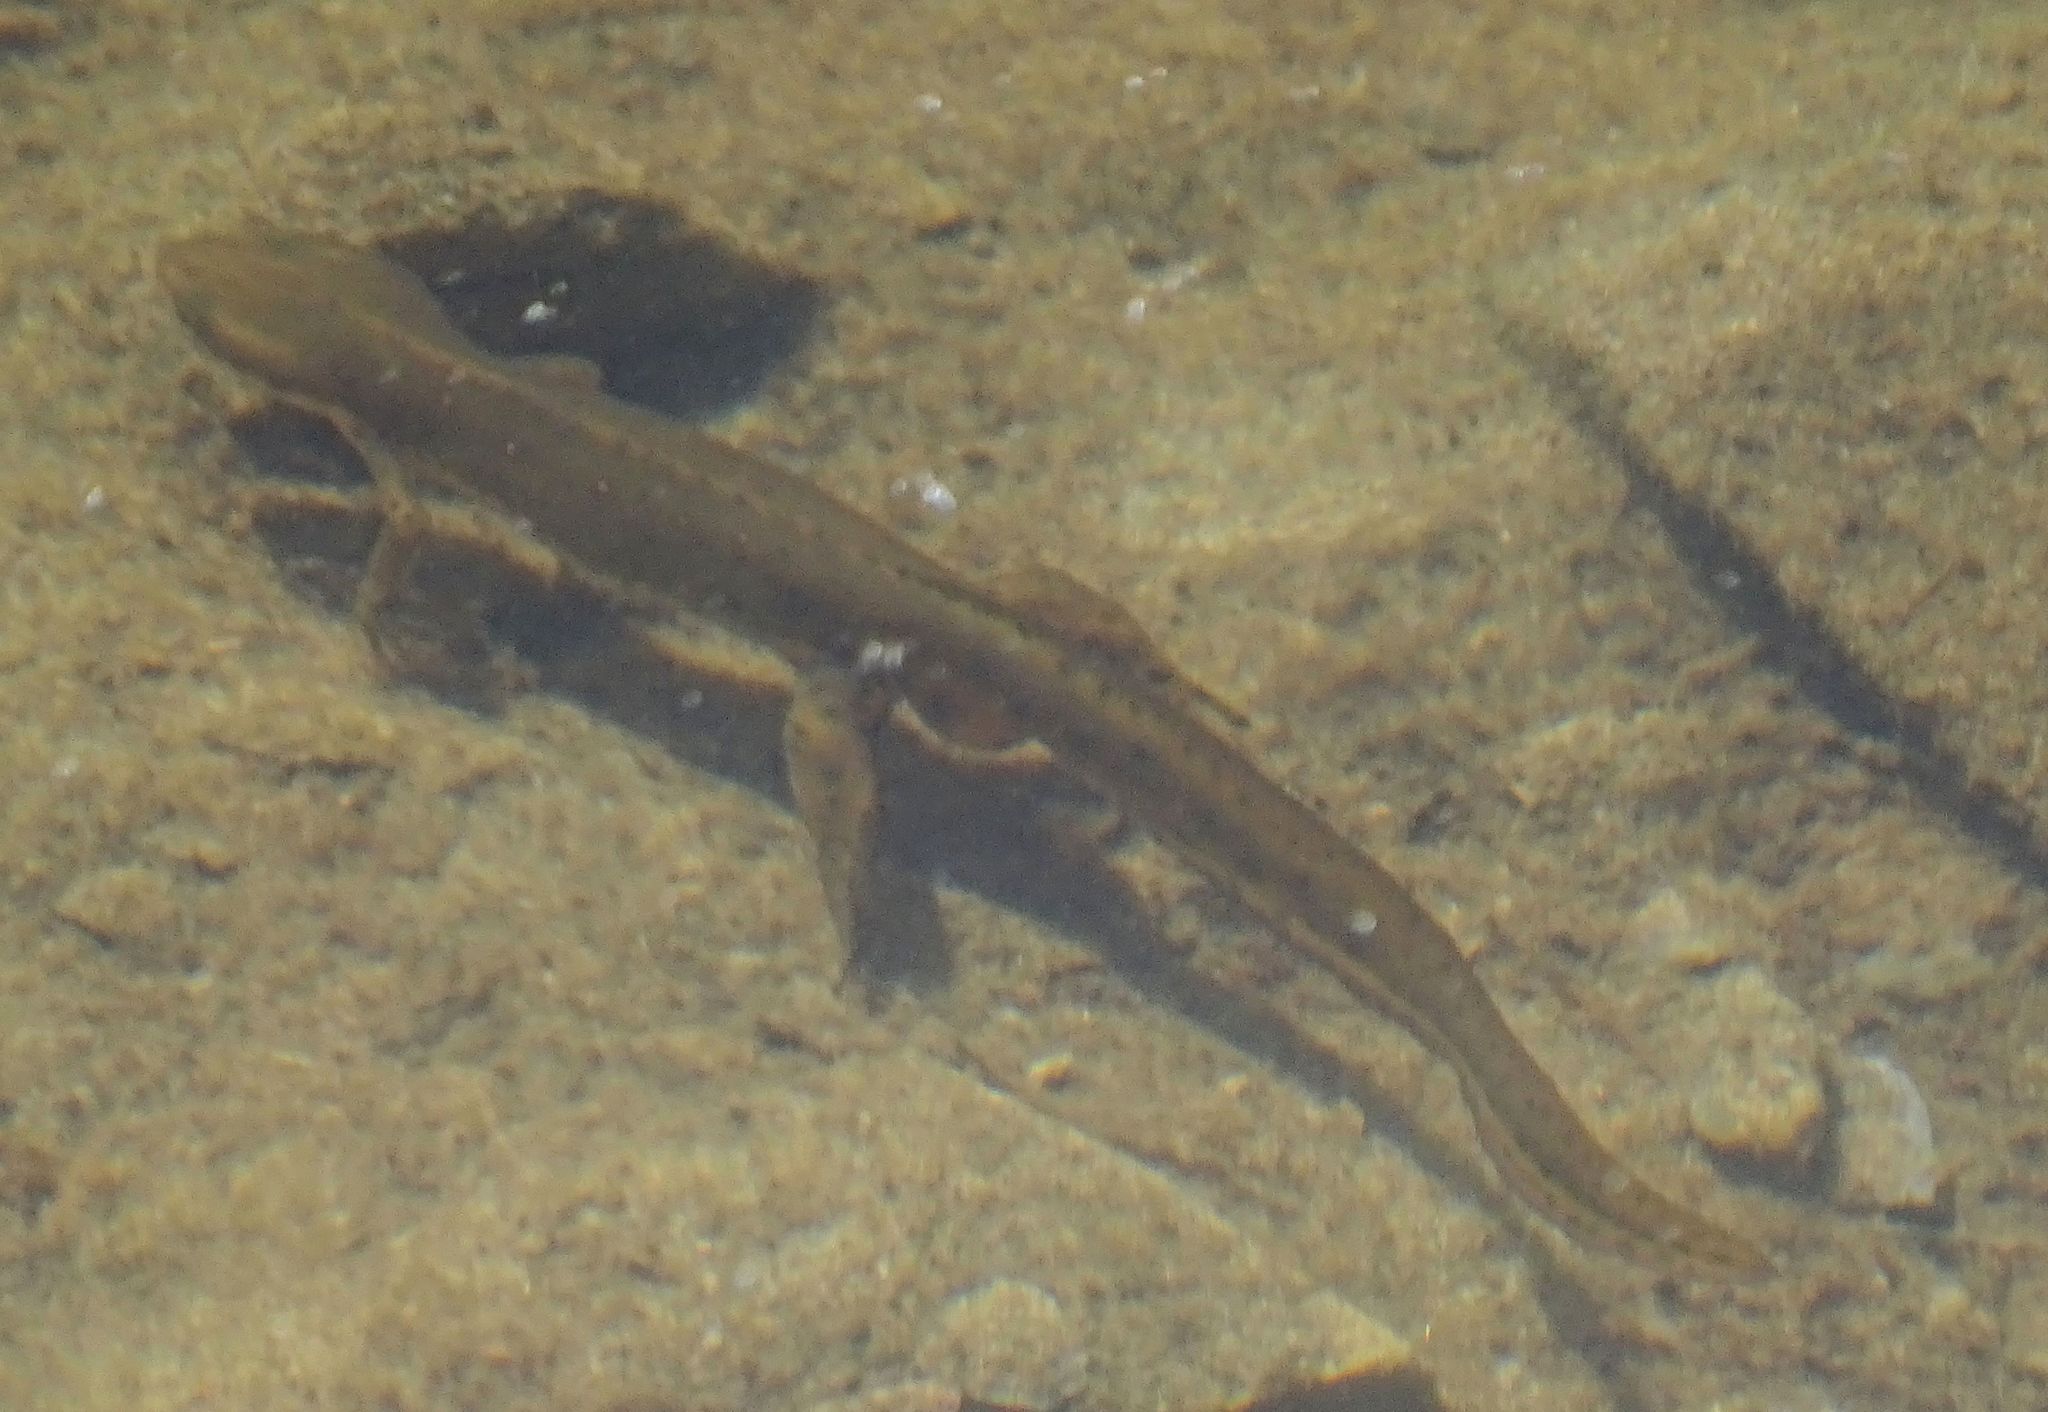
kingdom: Animalia
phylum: Chordata
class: Amphibia
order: Caudata
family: Salamandridae
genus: Notophthalmus
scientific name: Notophthalmus viridescens
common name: Eastern newt
